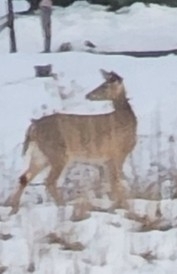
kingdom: Animalia
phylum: Chordata
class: Mammalia
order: Artiodactyla
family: Cervidae
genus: Odocoileus
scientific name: Odocoileus virginianus
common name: White-tailed deer
